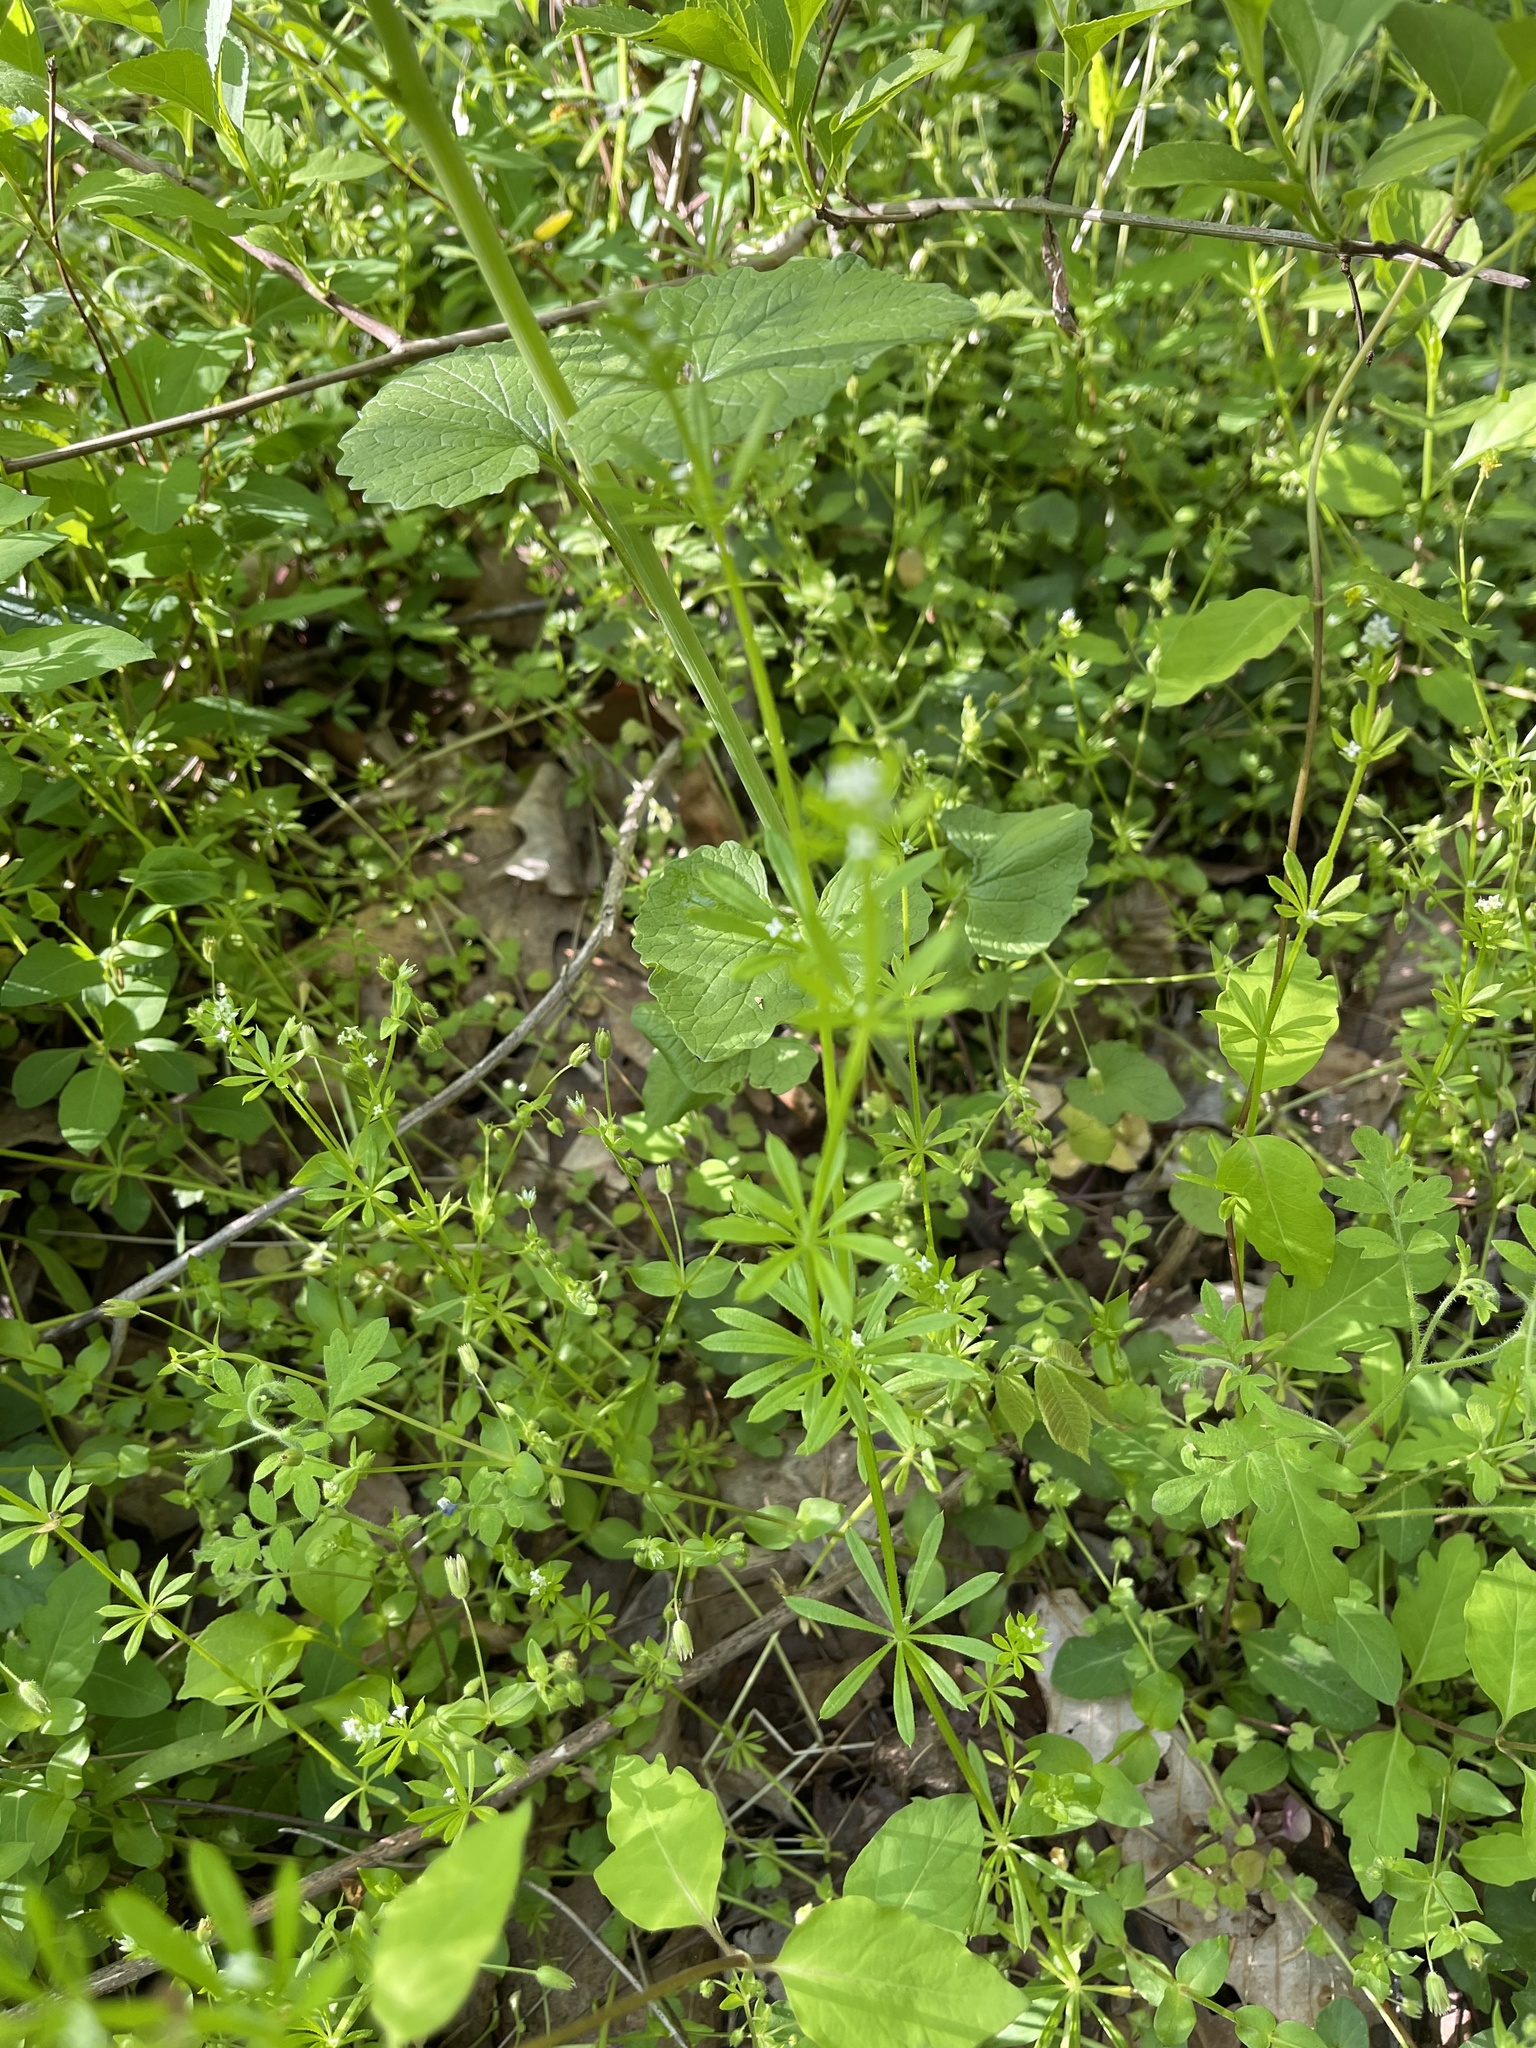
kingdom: Plantae
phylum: Tracheophyta
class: Magnoliopsida
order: Gentianales
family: Rubiaceae
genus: Galium
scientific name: Galium aparine
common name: Cleavers
